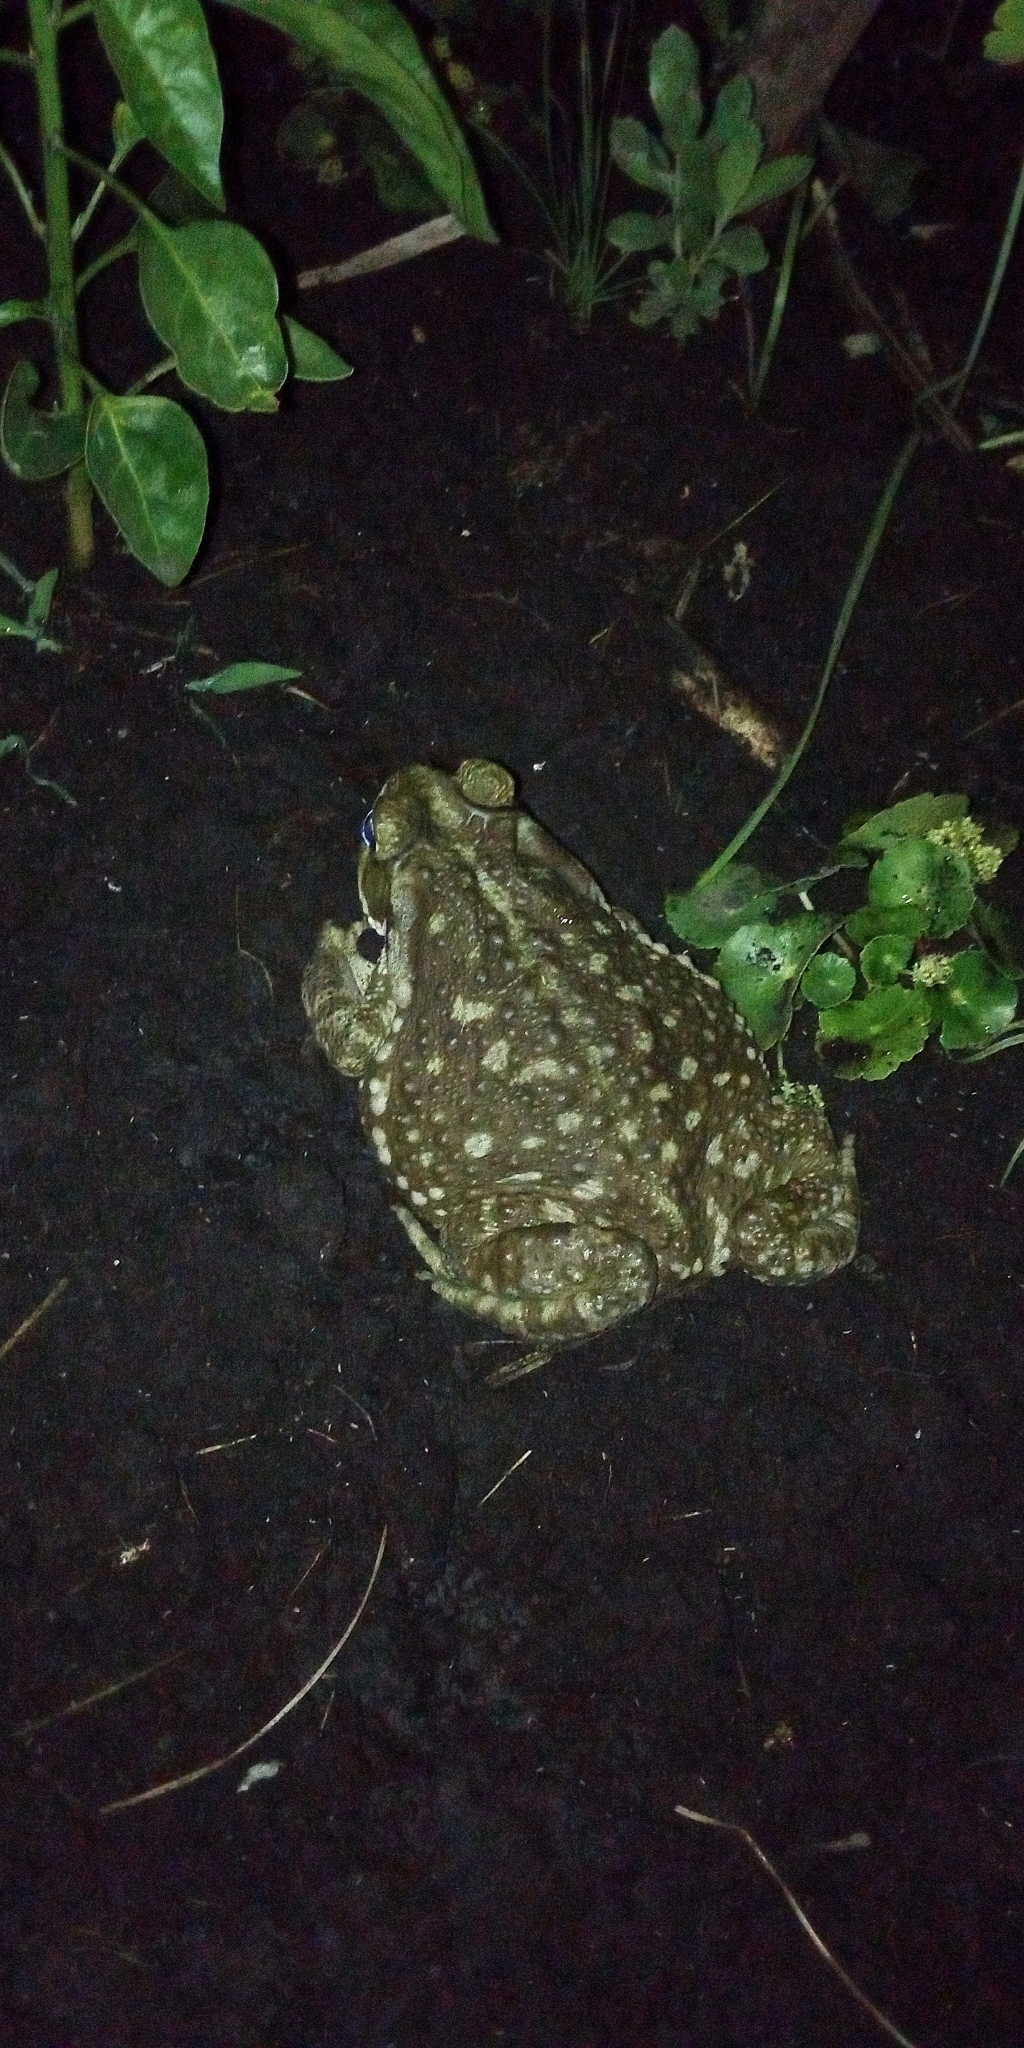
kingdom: Animalia
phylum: Chordata
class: Amphibia
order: Anura
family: Bufonidae
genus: Rhinella
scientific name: Rhinella arenarum
